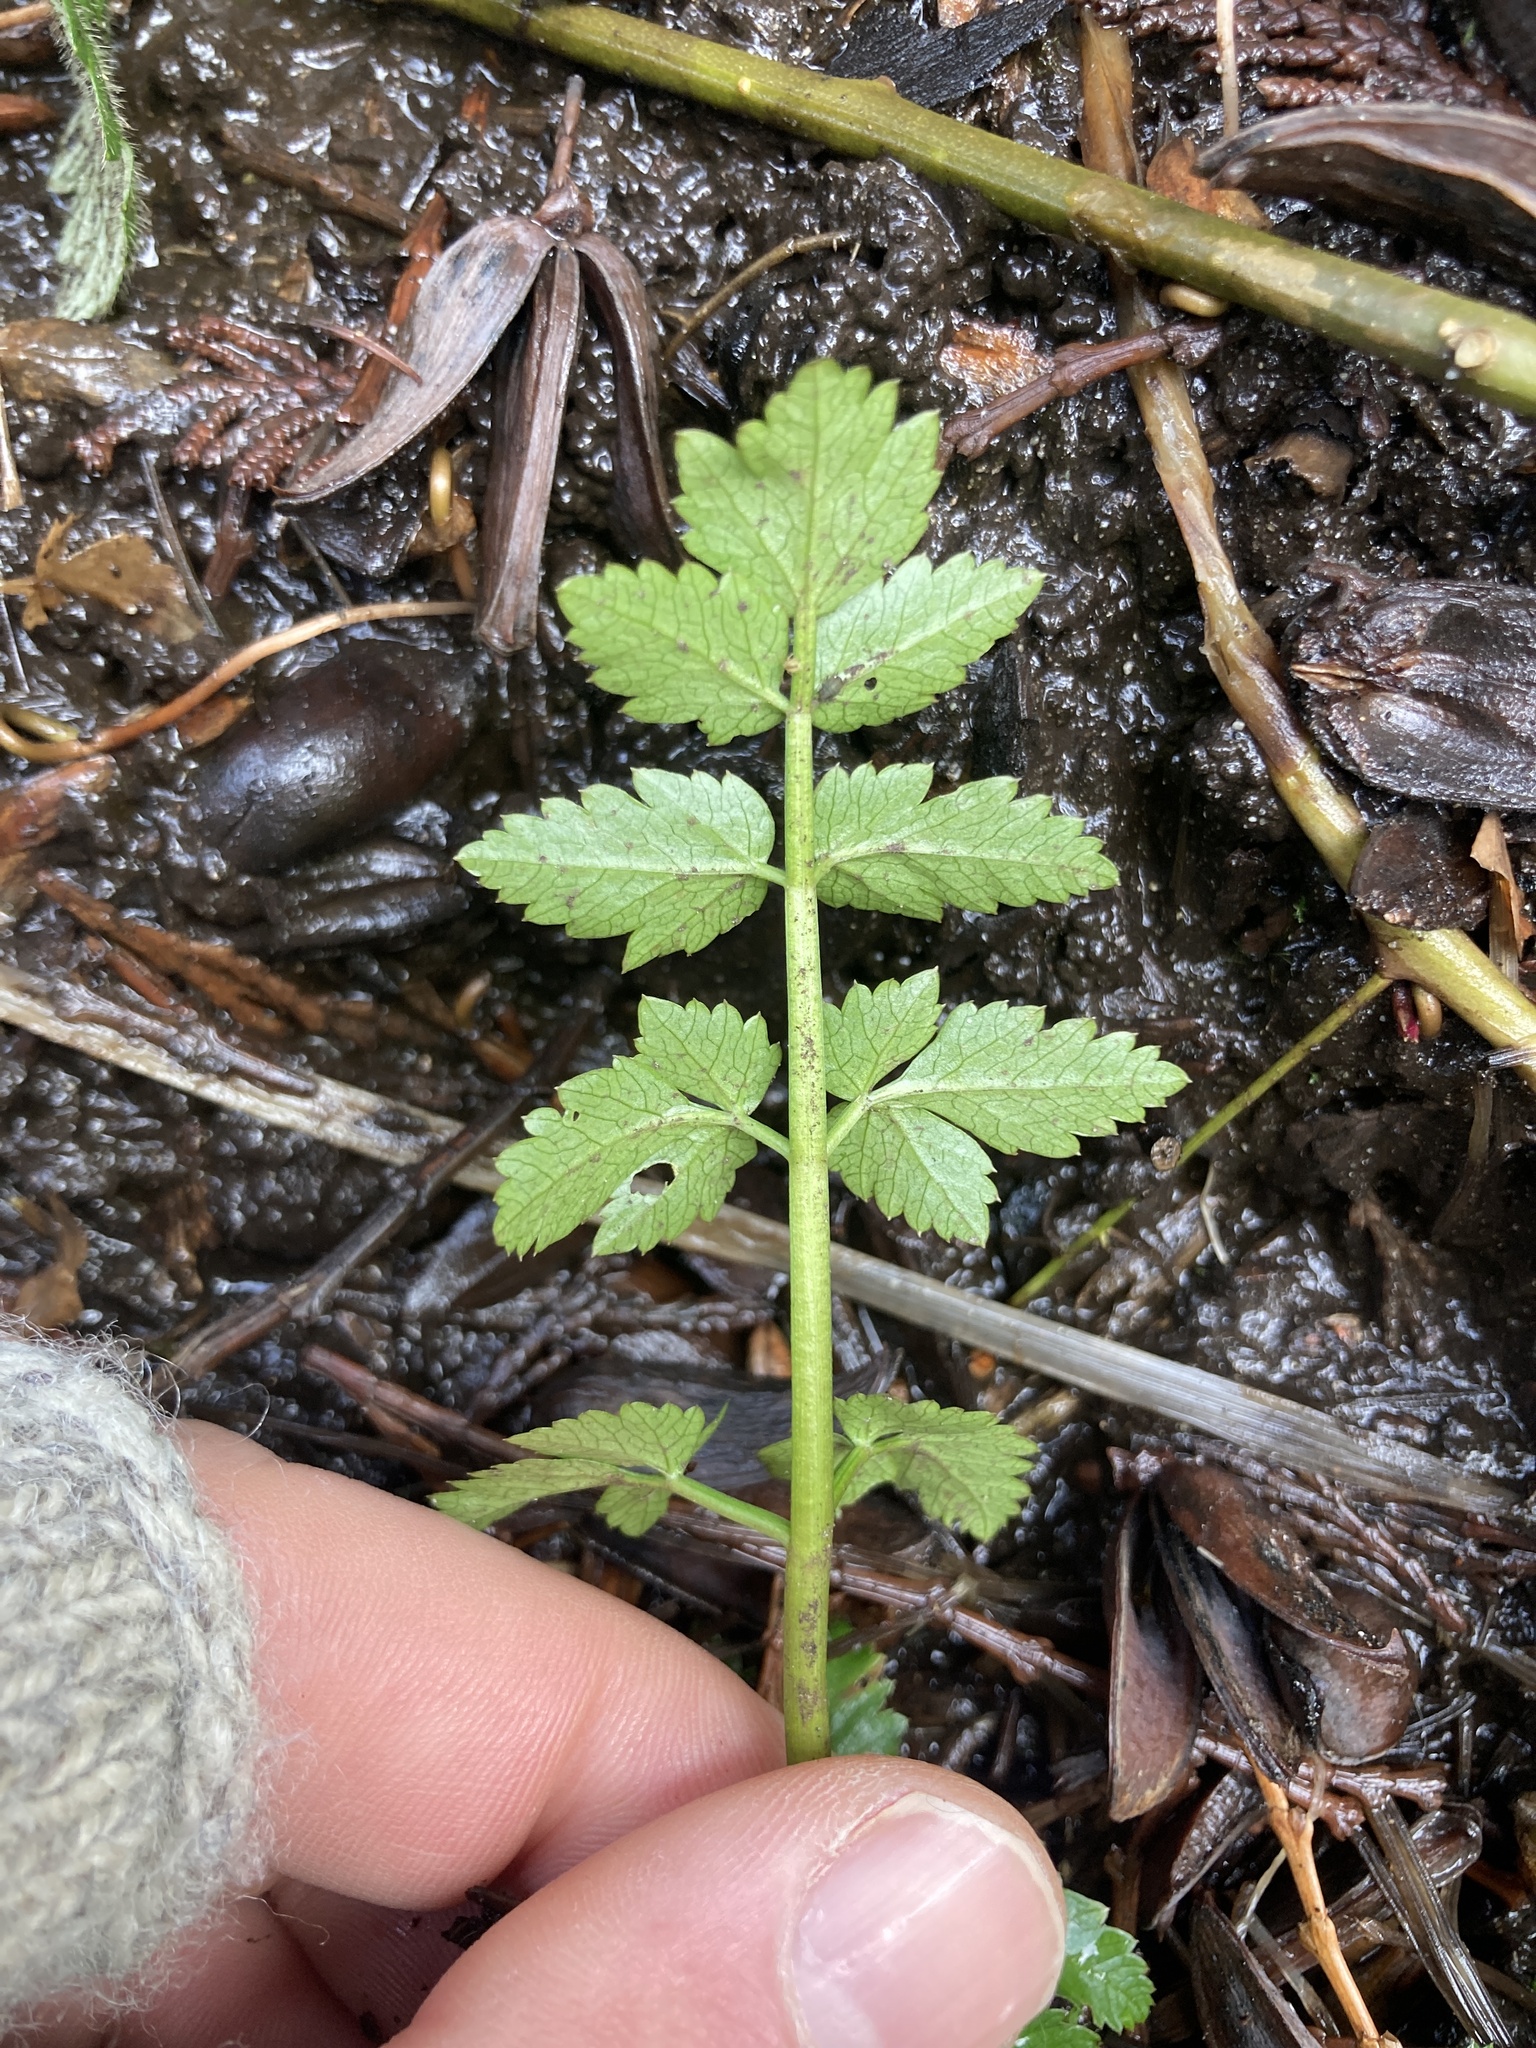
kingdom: Plantae
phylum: Tracheophyta
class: Magnoliopsida
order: Apiales
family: Apiaceae
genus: Oenanthe
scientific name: Oenanthe sarmentosa
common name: American water-parsley
